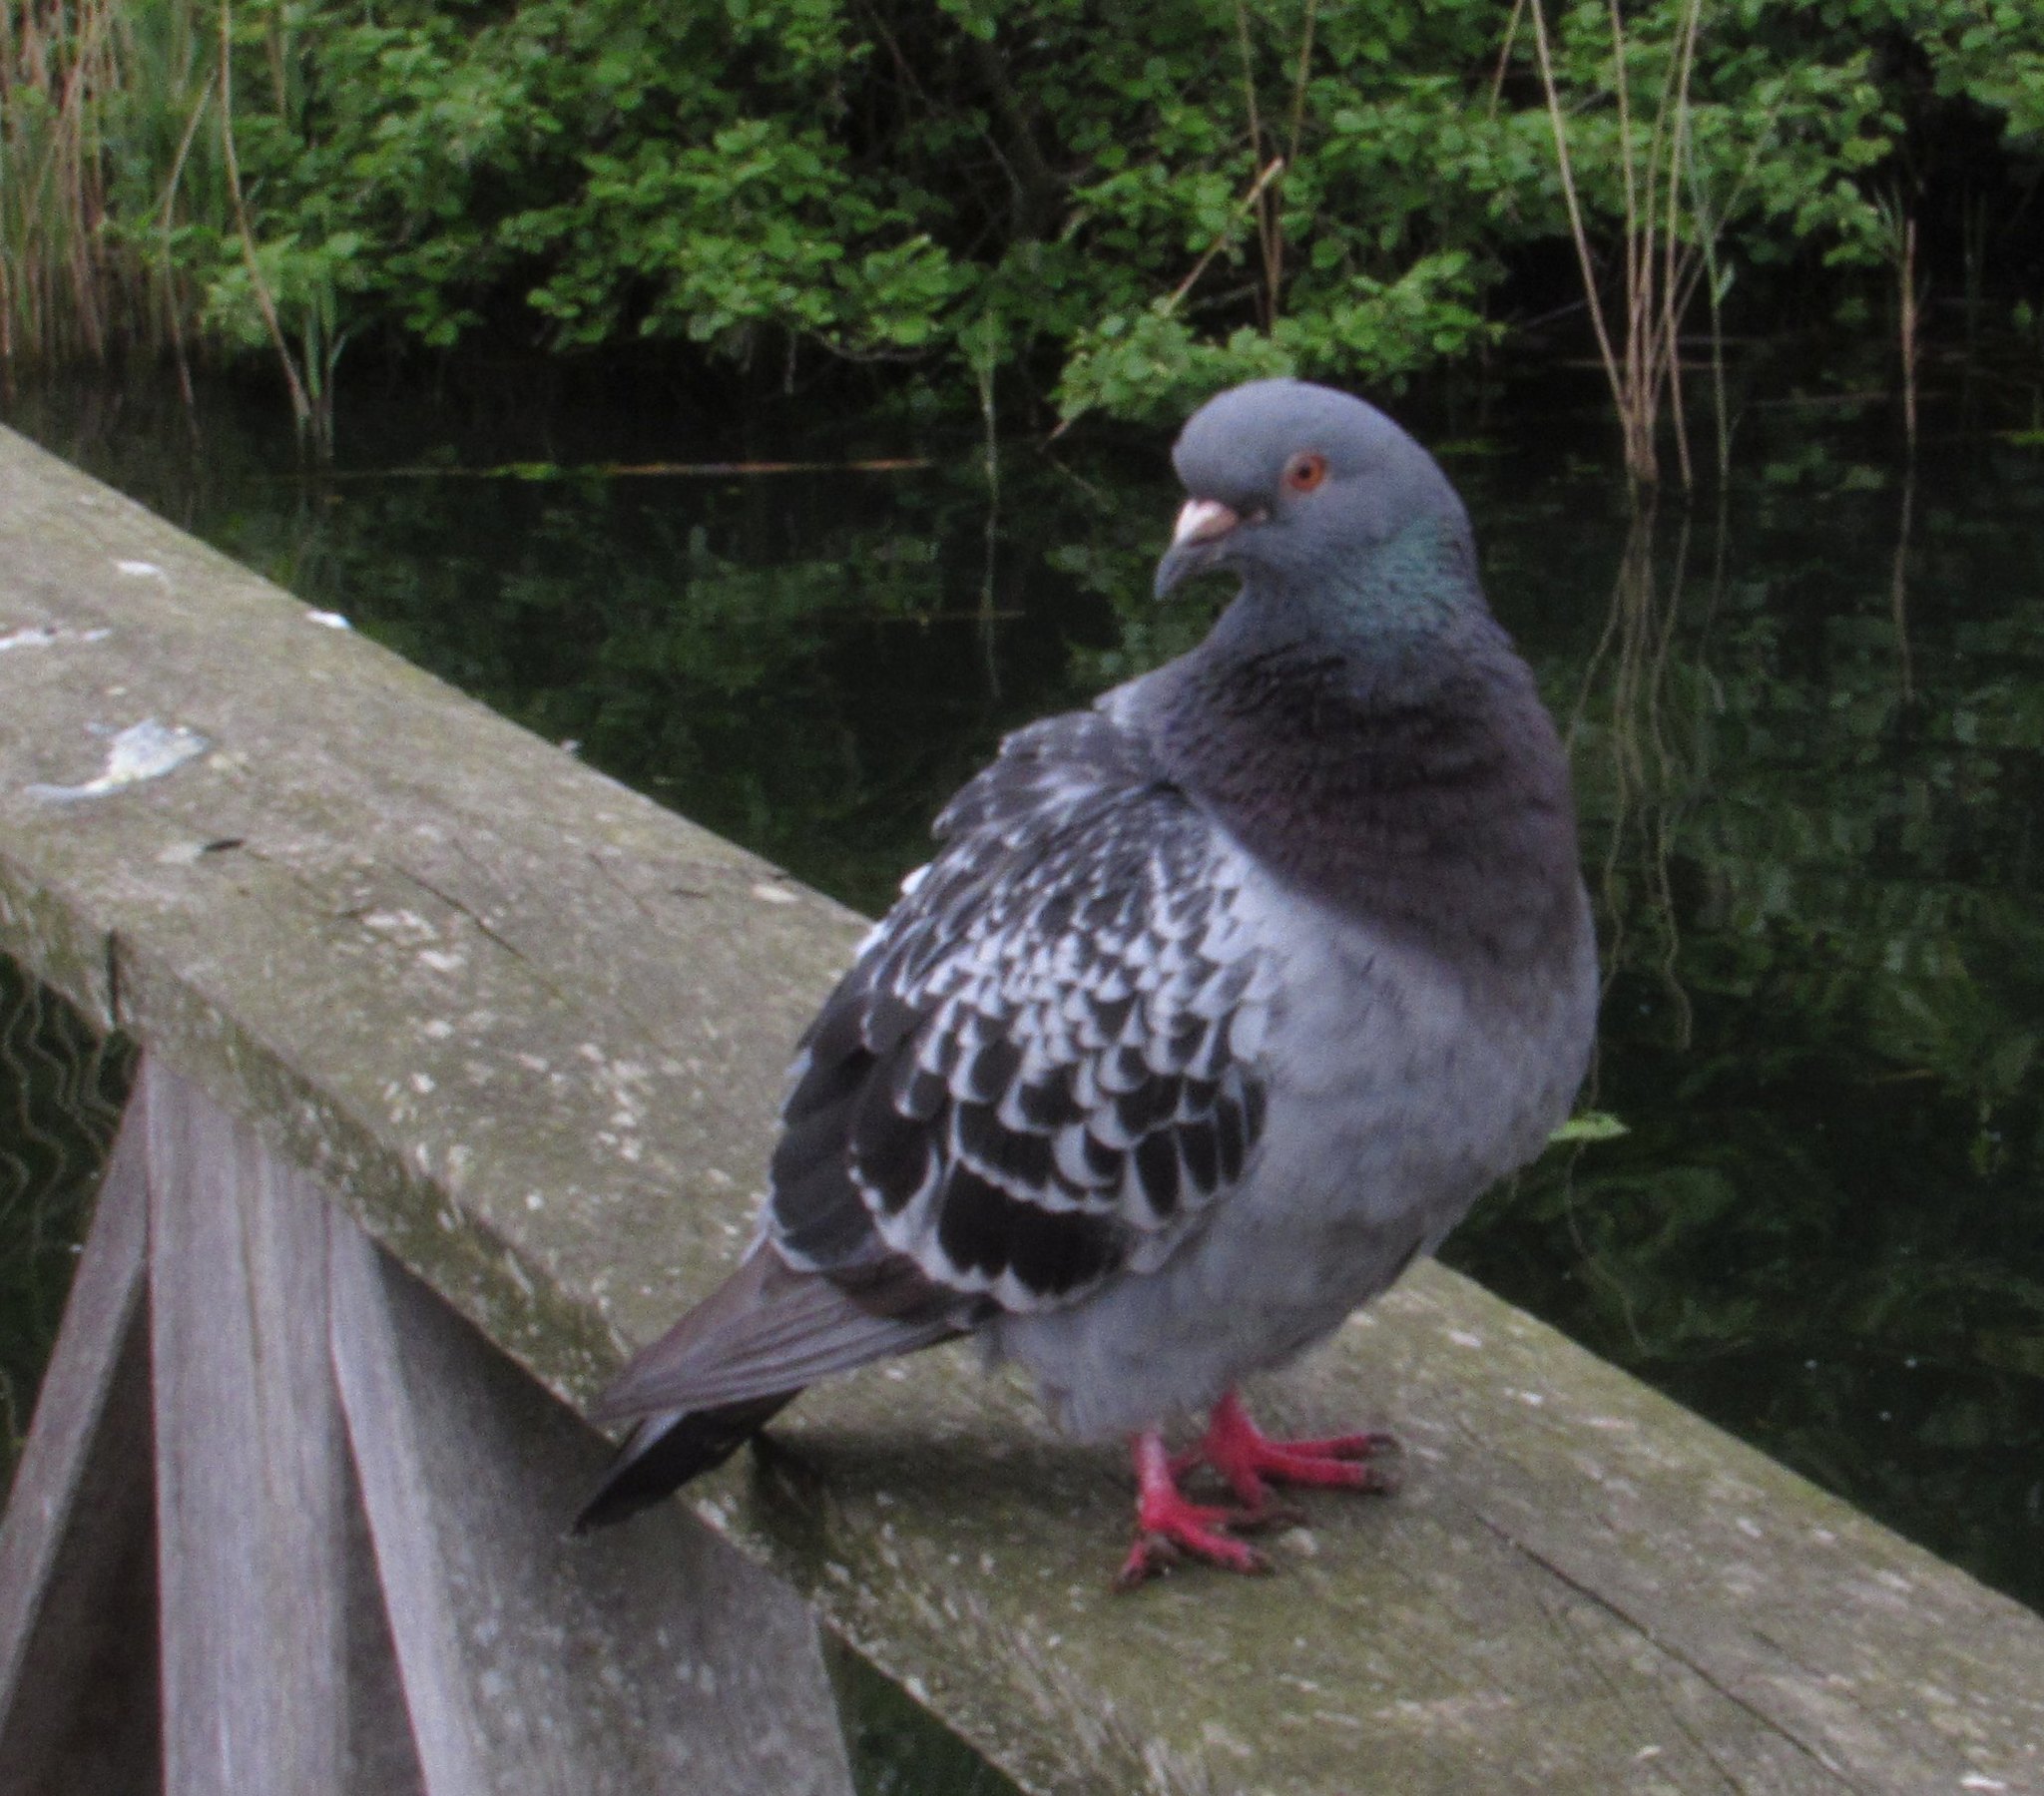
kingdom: Animalia
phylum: Chordata
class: Aves
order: Columbiformes
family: Columbidae
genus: Columba
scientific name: Columba livia
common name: Rock pigeon
